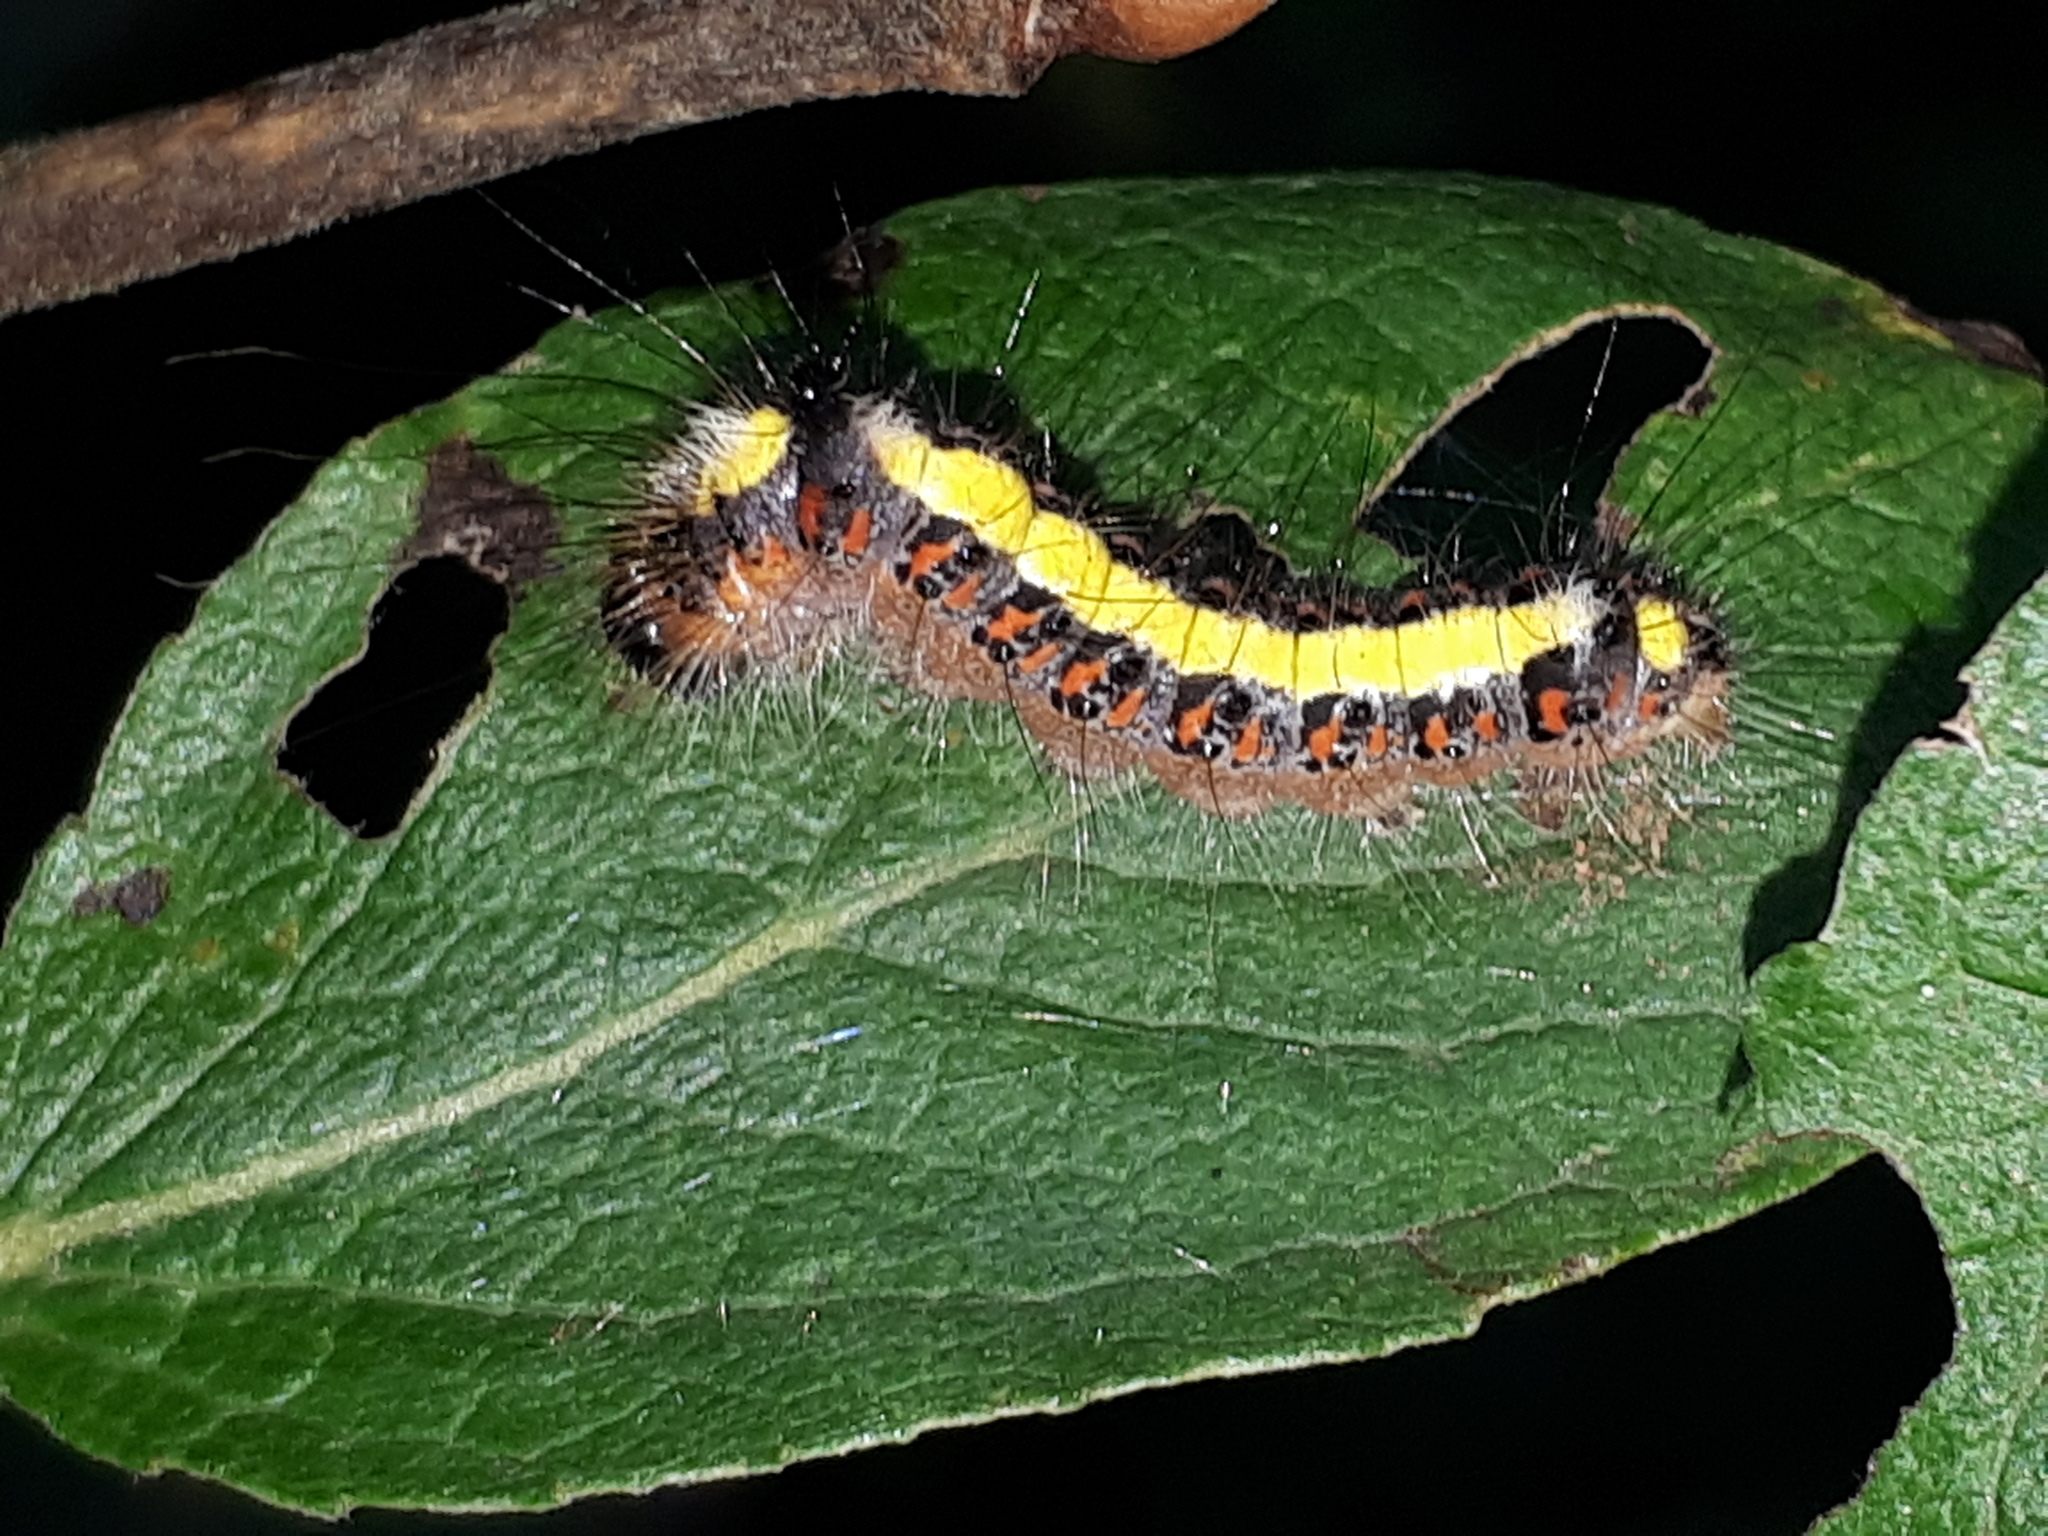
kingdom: Animalia
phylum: Arthropoda
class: Insecta
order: Lepidoptera
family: Noctuidae
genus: Acronicta
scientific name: Acronicta psi
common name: Grey dagger
